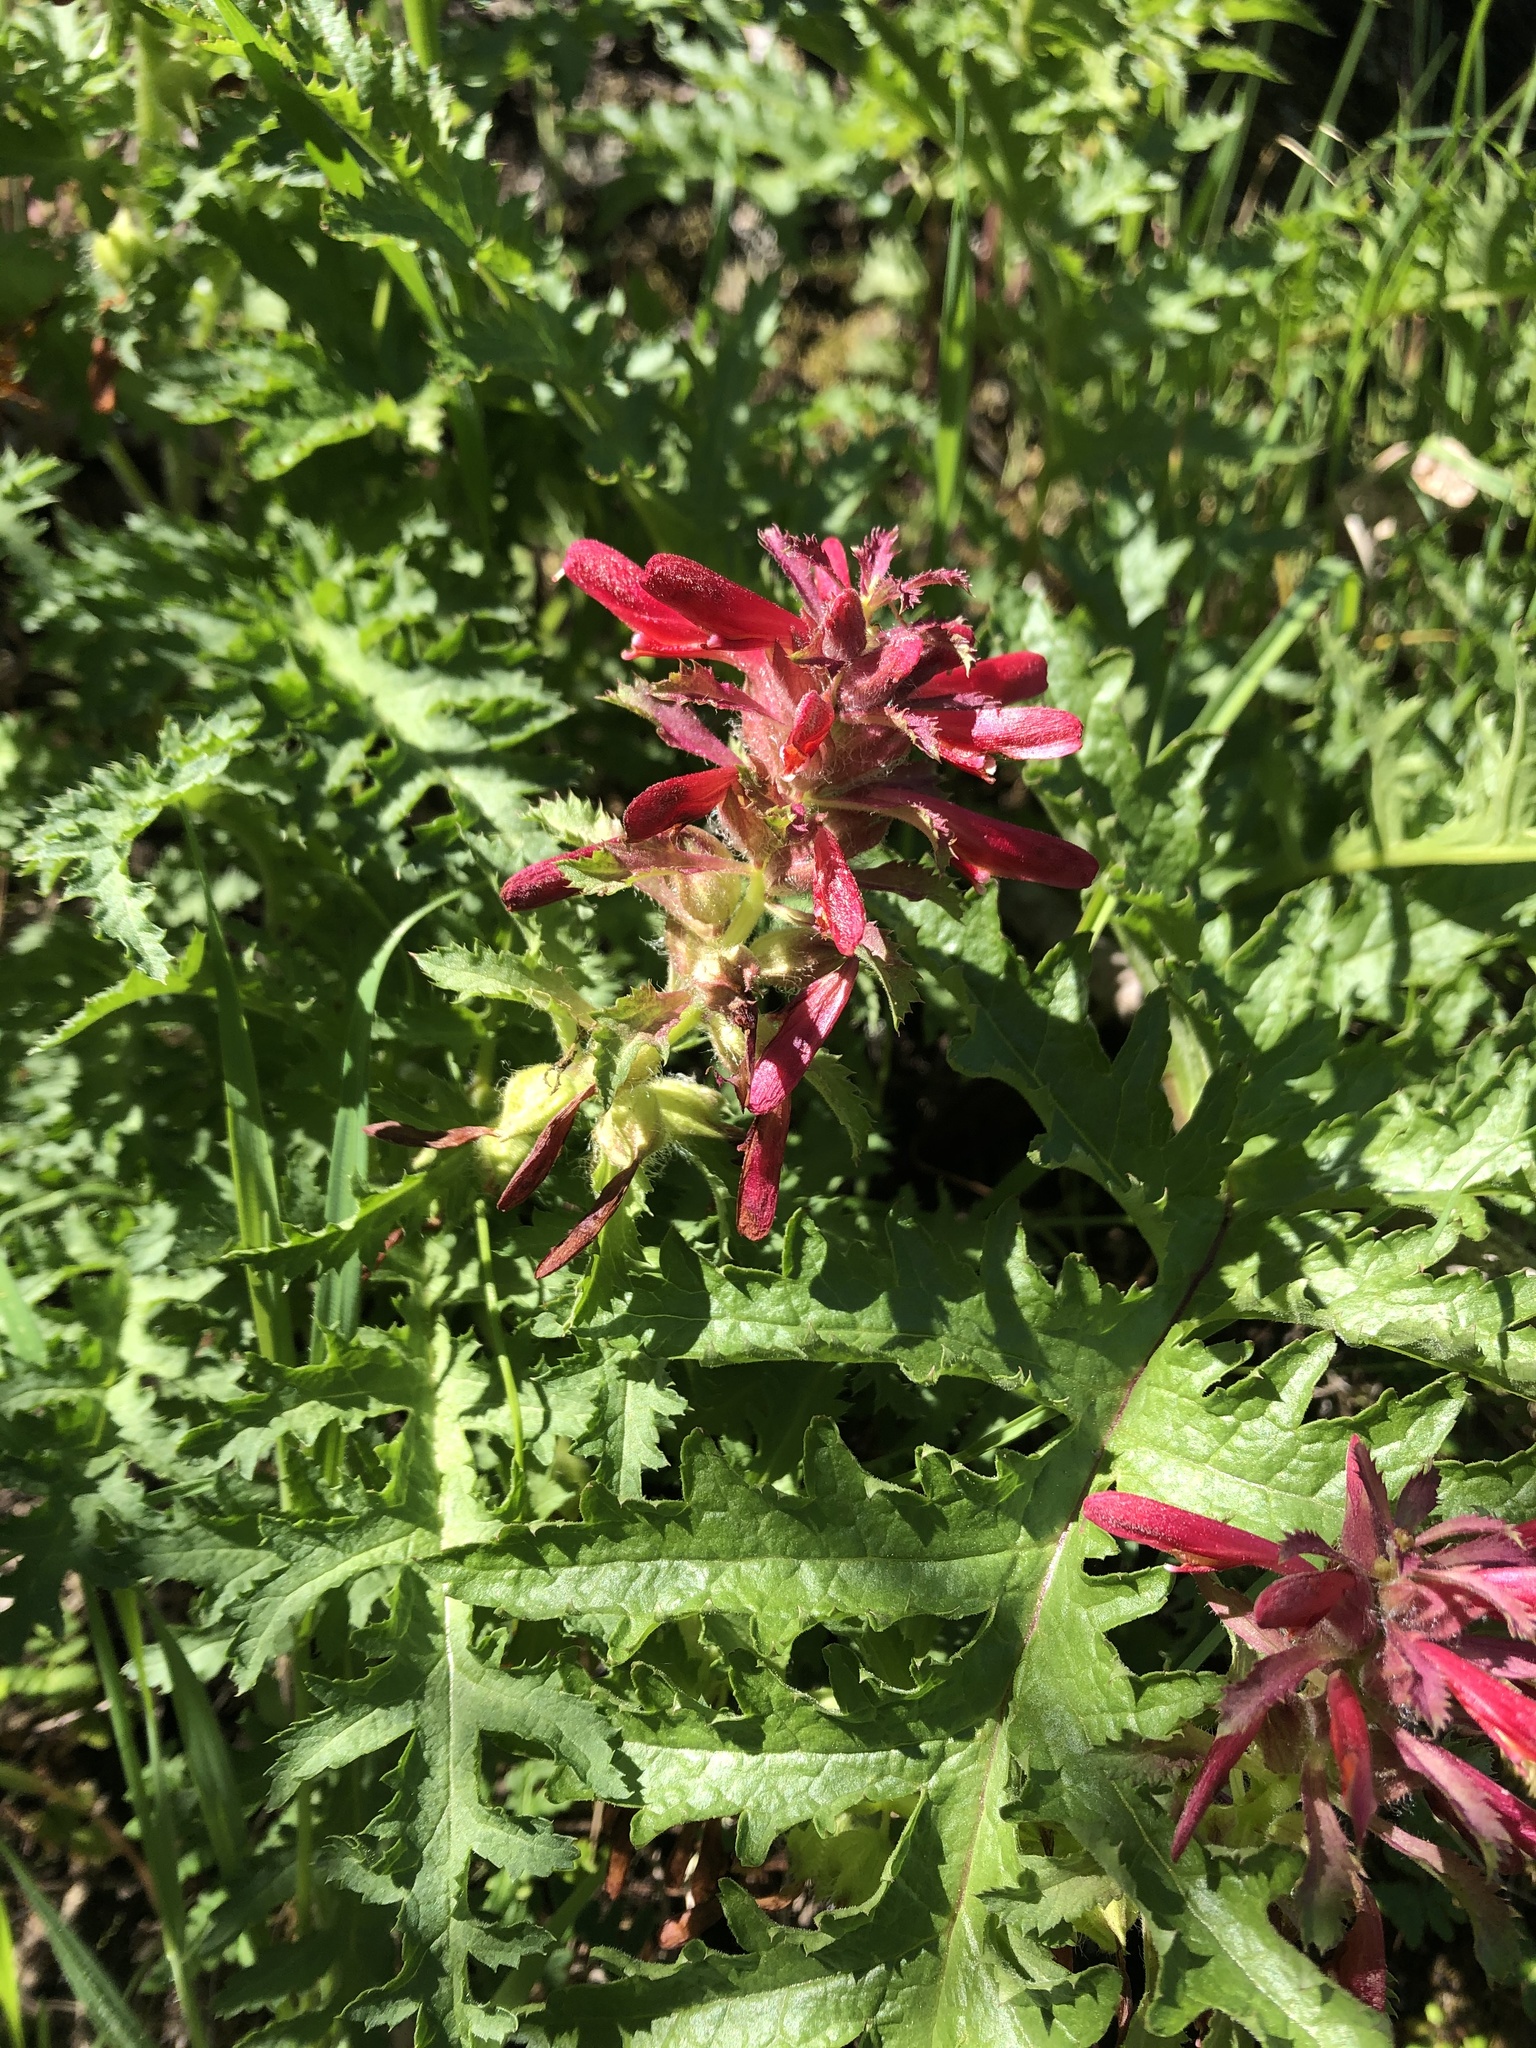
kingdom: Plantae
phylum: Tracheophyta
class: Magnoliopsida
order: Lamiales
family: Orobanchaceae
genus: Pedicularis
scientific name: Pedicularis densiflora
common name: Indian warrior
